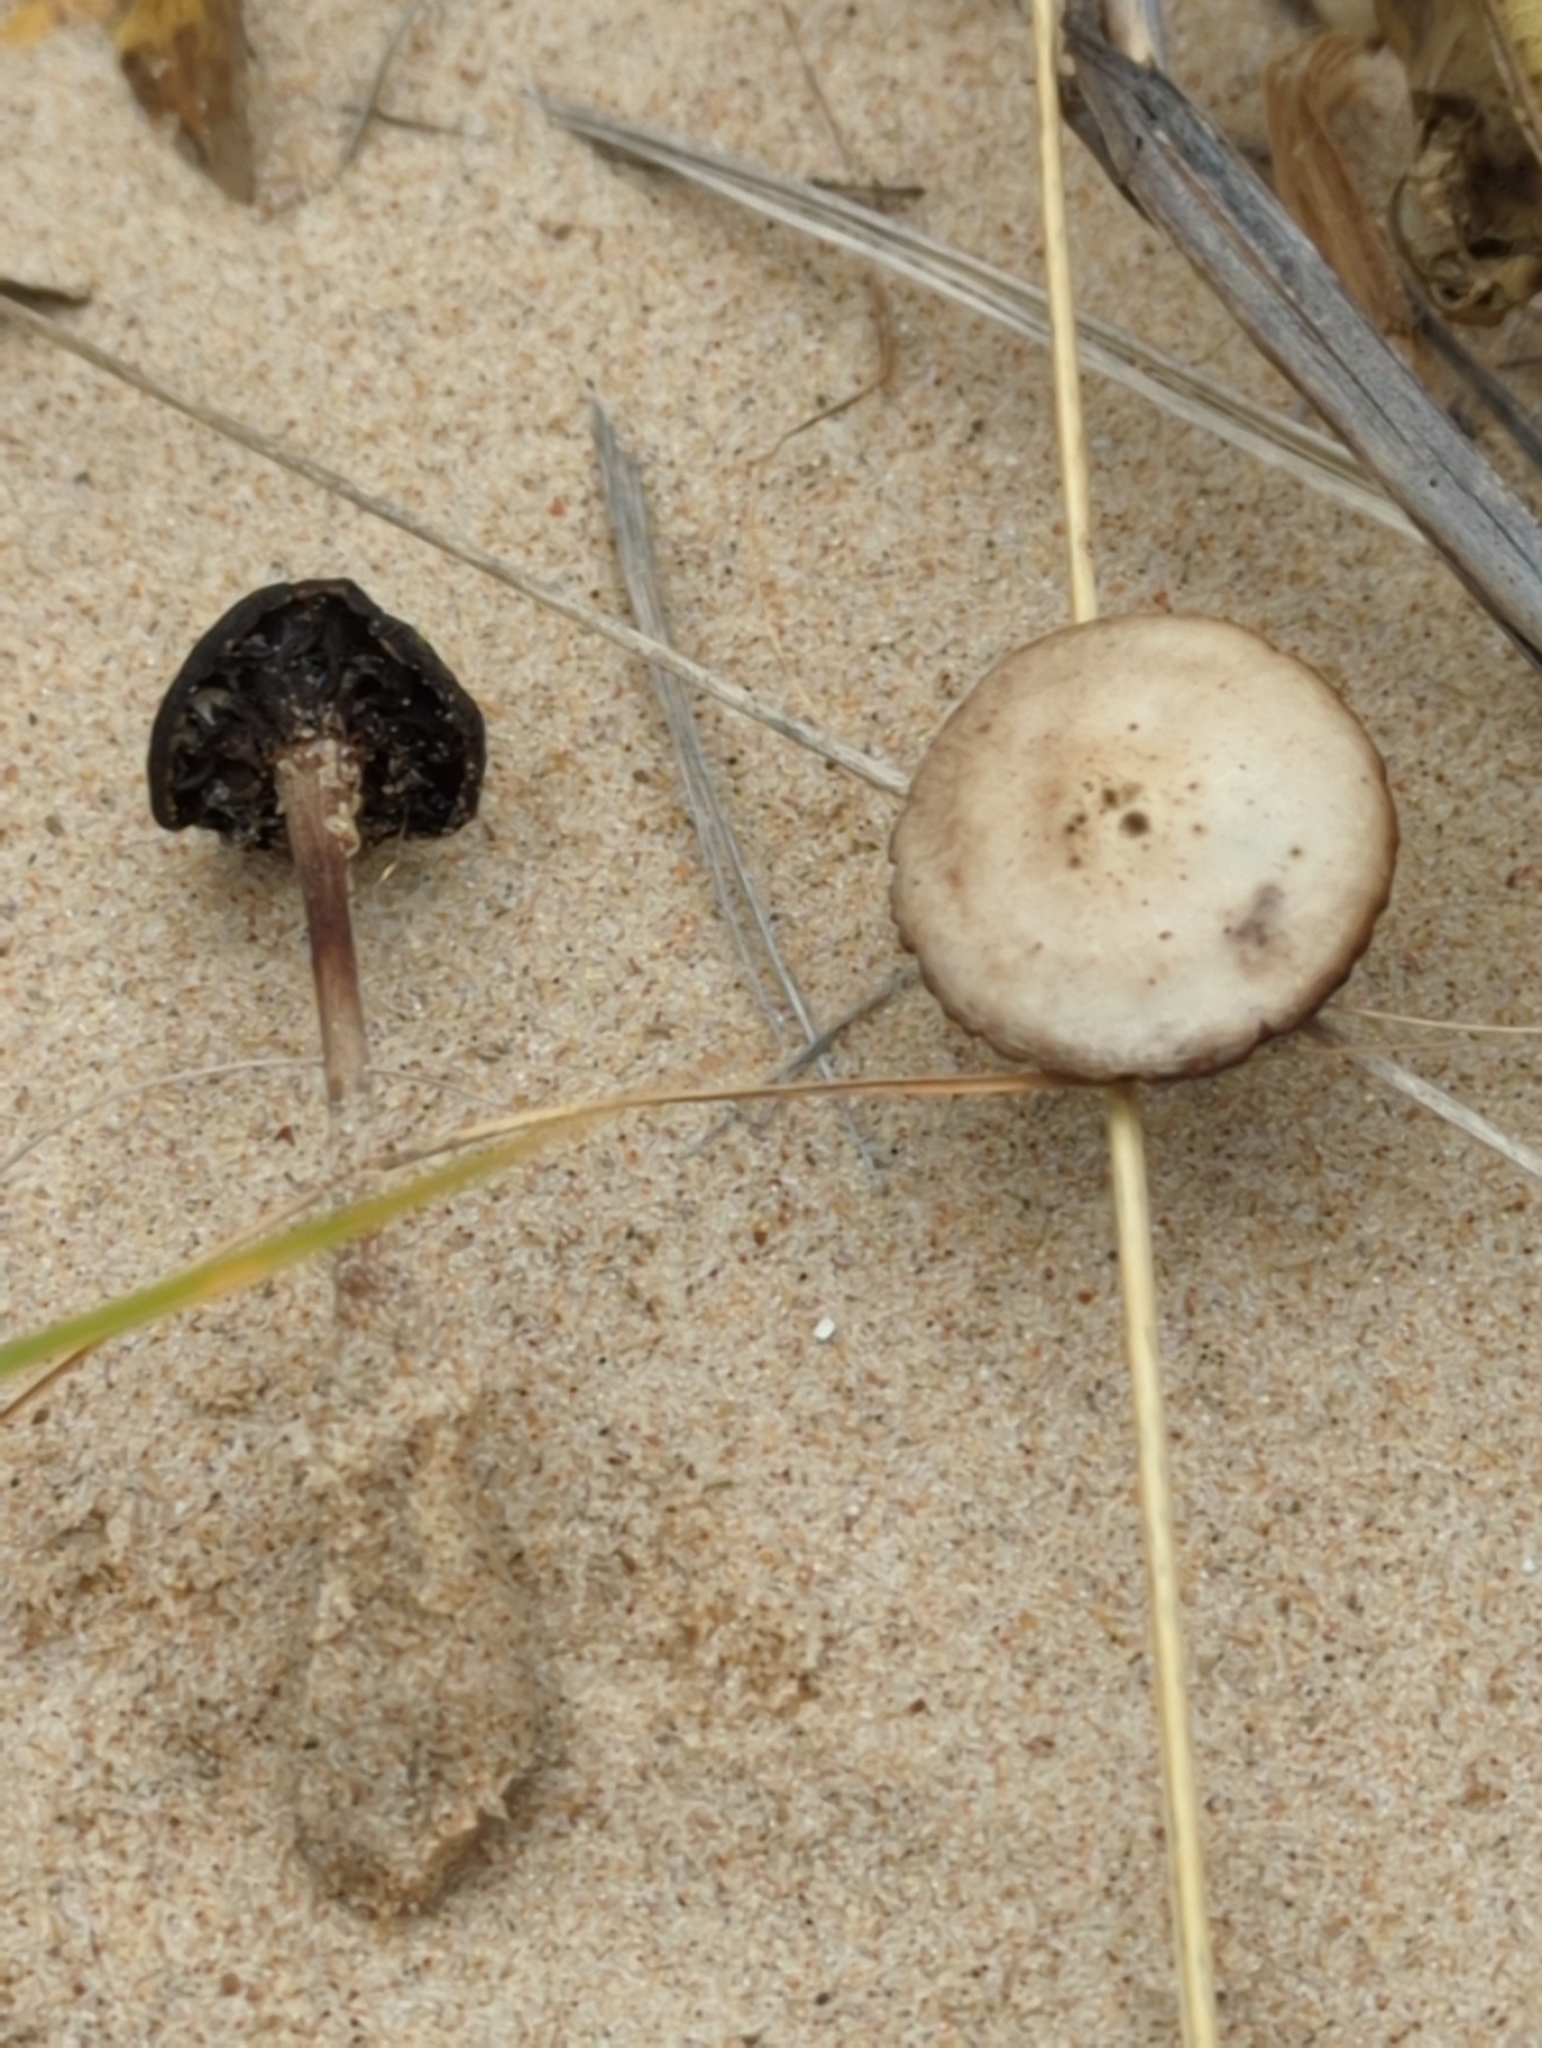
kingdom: Fungi
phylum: Basidiomycota
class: Agaricomycetes
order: Agaricales
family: Psathyrellaceae
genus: Psathyrella
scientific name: Psathyrella ammophila
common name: Dune brittlestem
